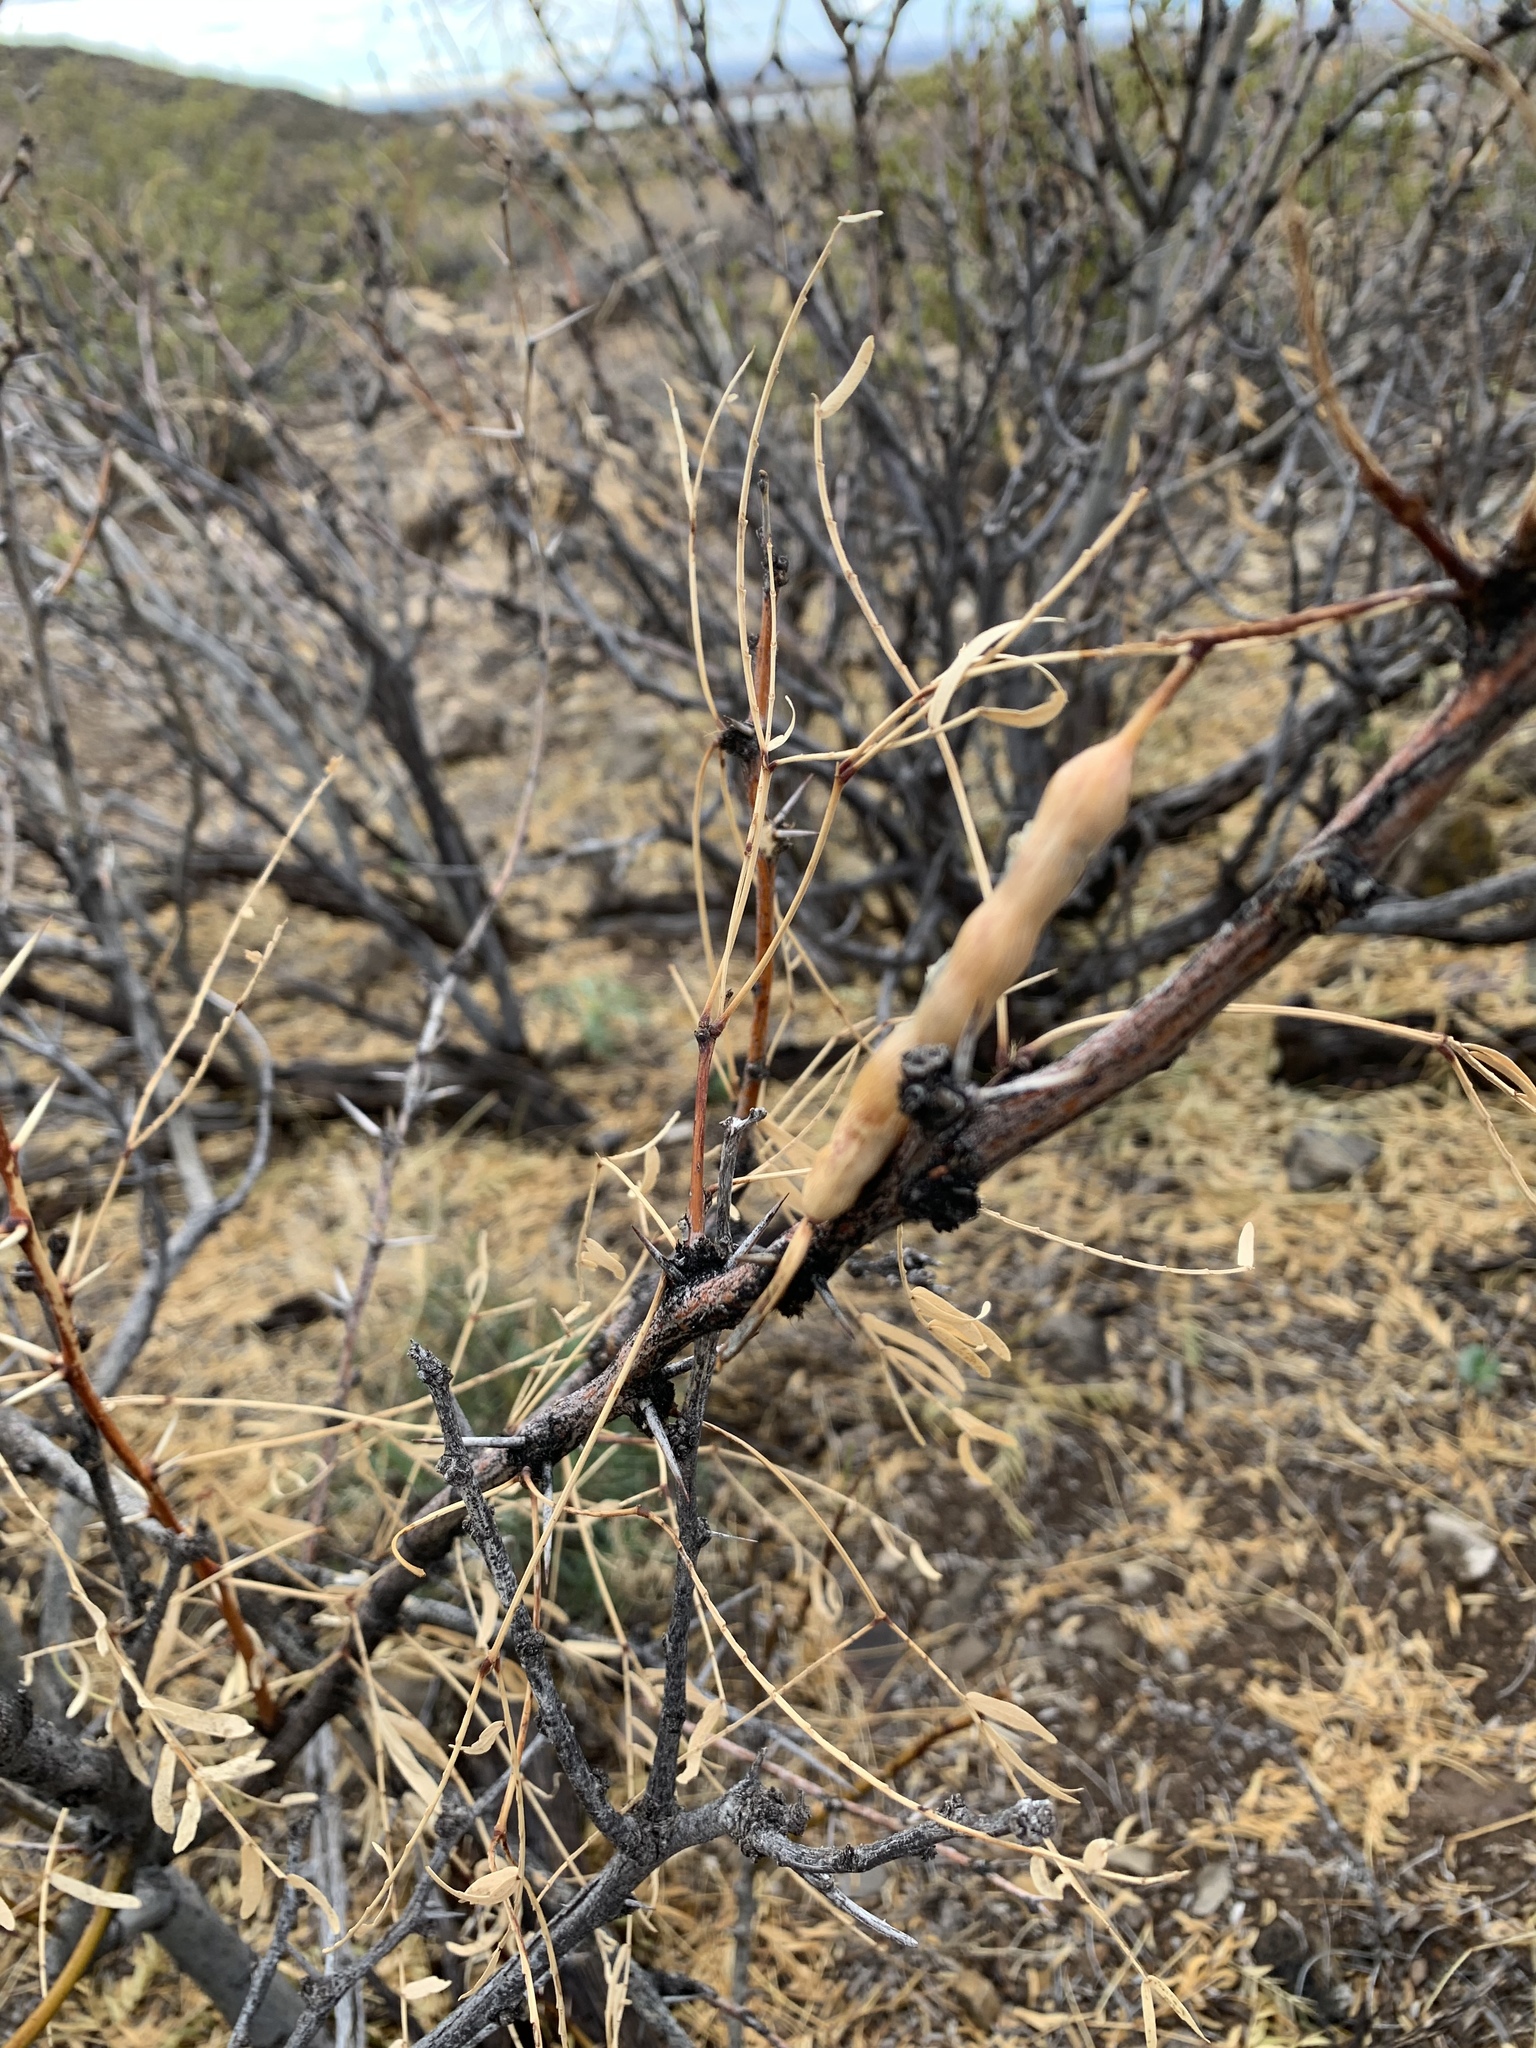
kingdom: Plantae
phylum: Tracheophyta
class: Magnoliopsida
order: Fabales
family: Fabaceae
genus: Prosopis
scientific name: Prosopis glandulosa
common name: Honey mesquite
